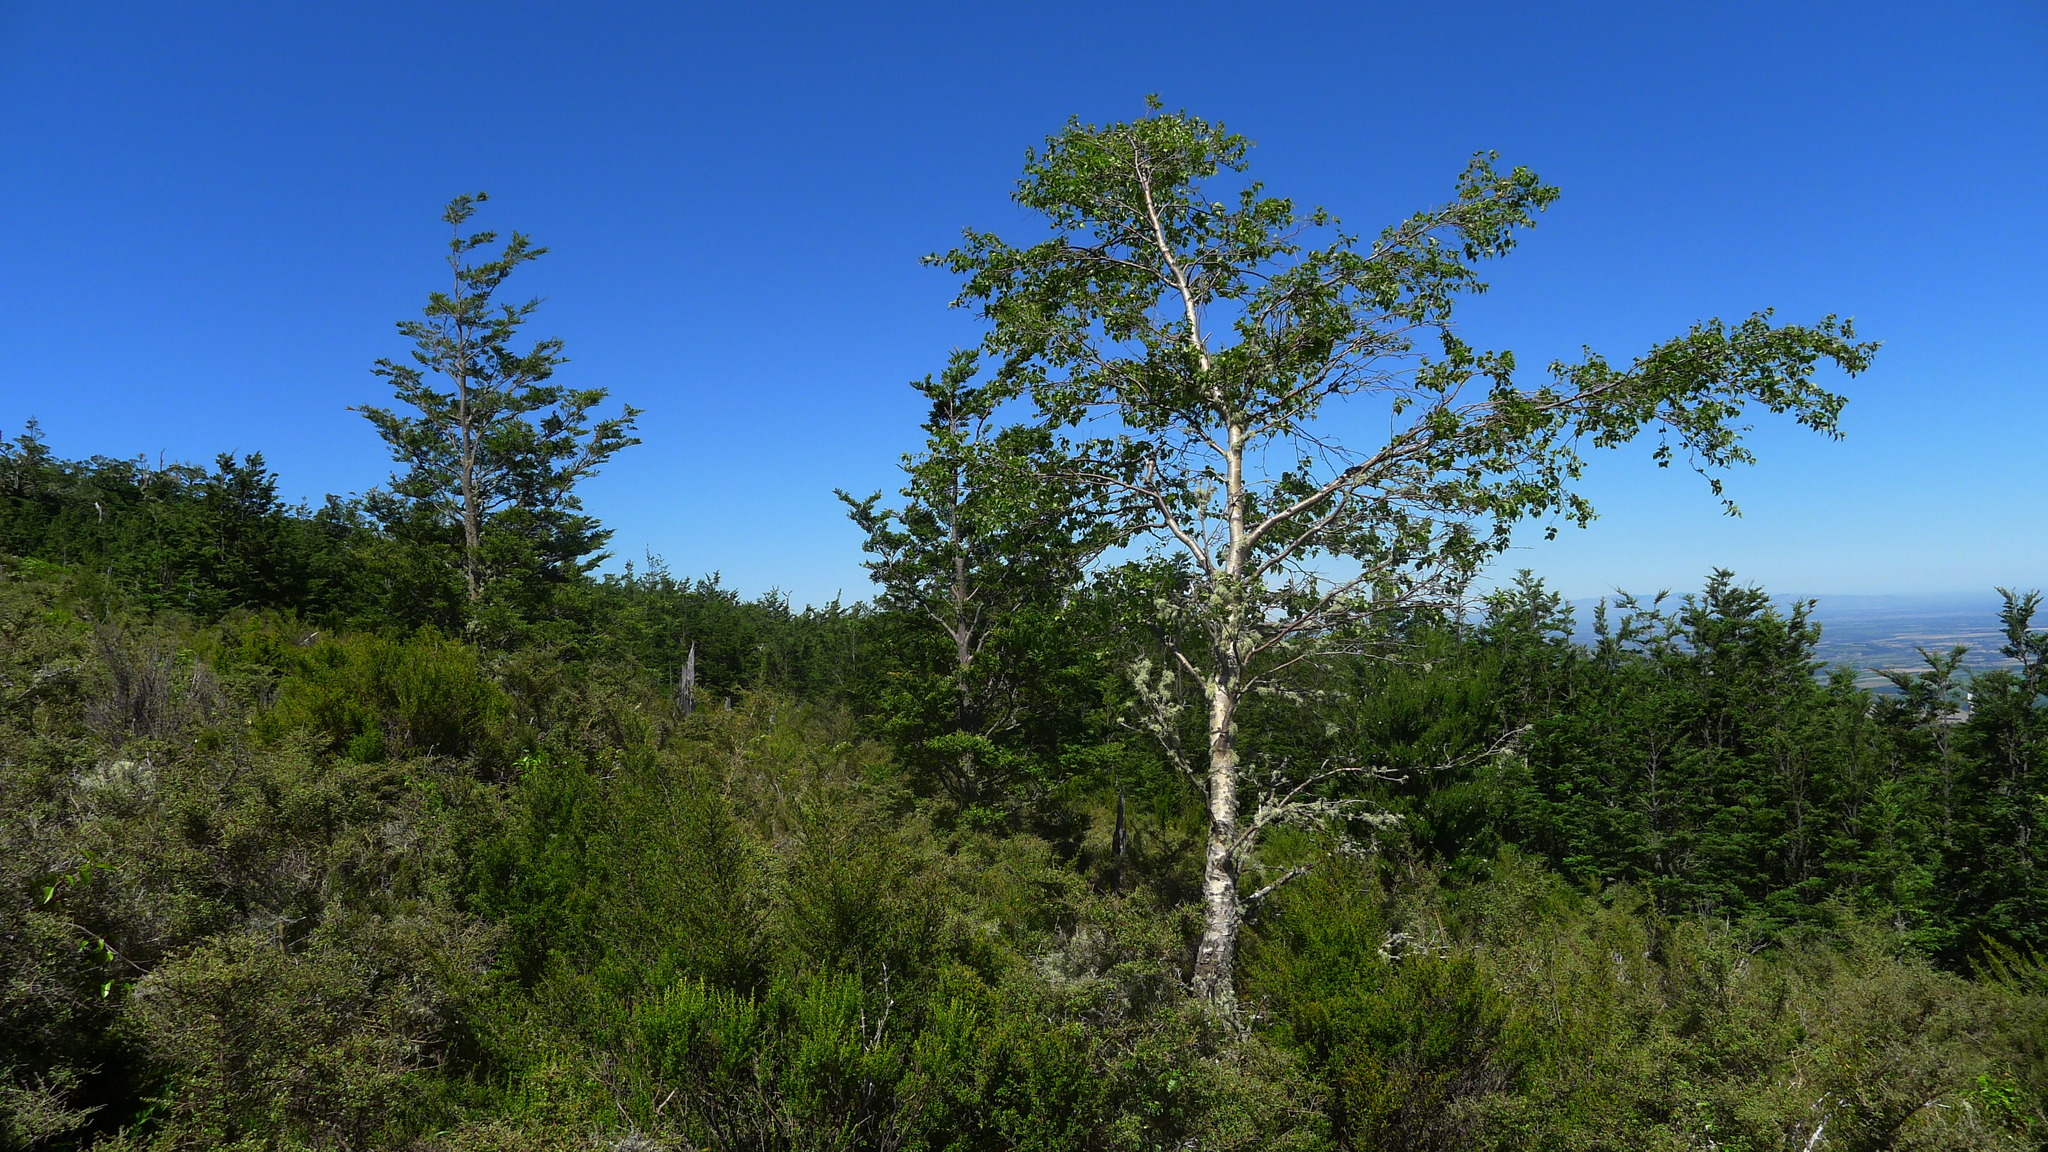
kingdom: Plantae
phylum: Tracheophyta
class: Magnoliopsida
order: Fagales
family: Betulaceae
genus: Betula
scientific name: Betula pendula
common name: Silver birch
